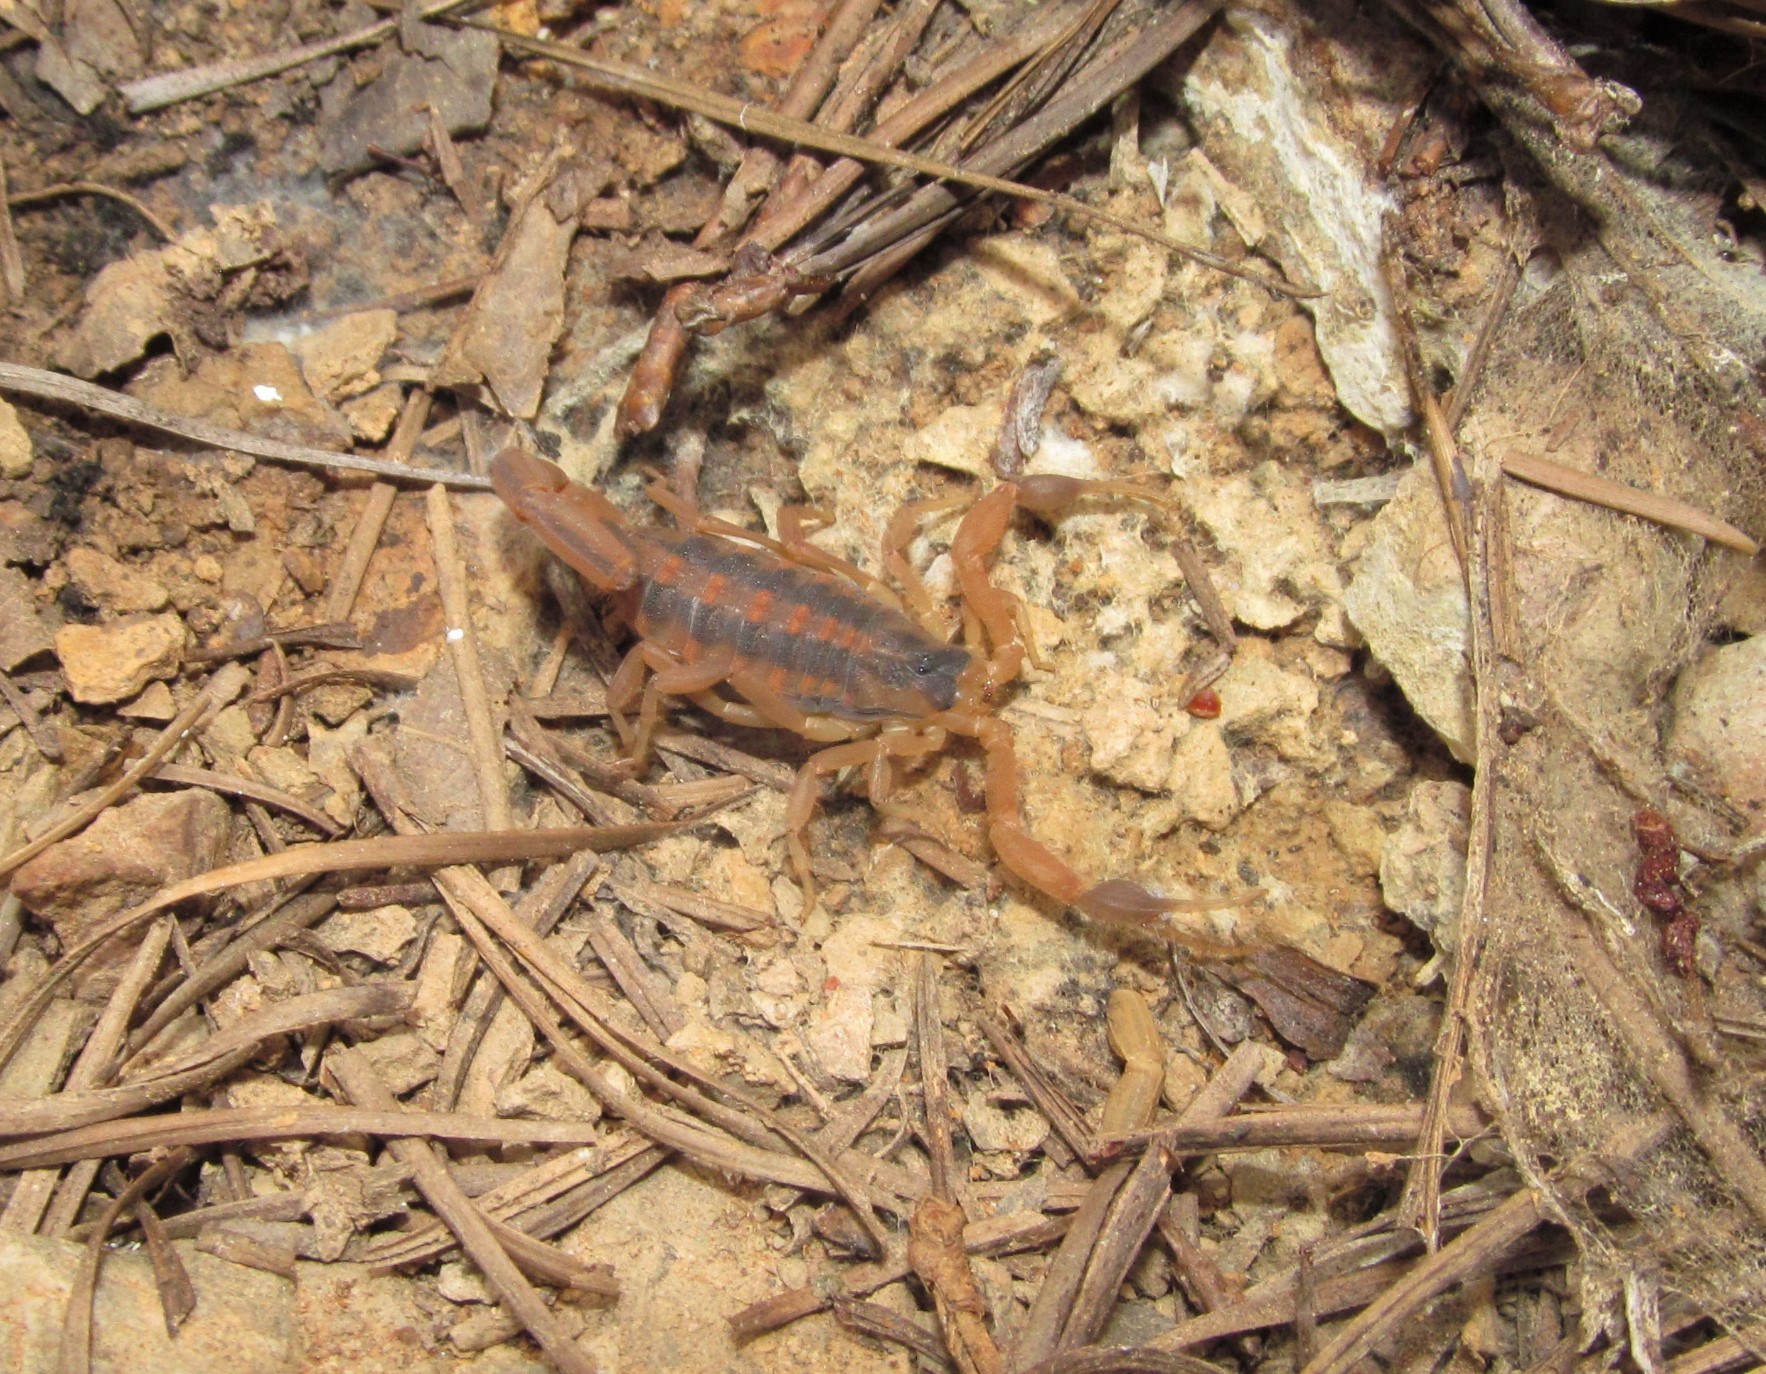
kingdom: Animalia
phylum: Arthropoda
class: Arachnida
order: Scorpiones
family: Buthidae
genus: Centruroides
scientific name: Centruroides vittatus
